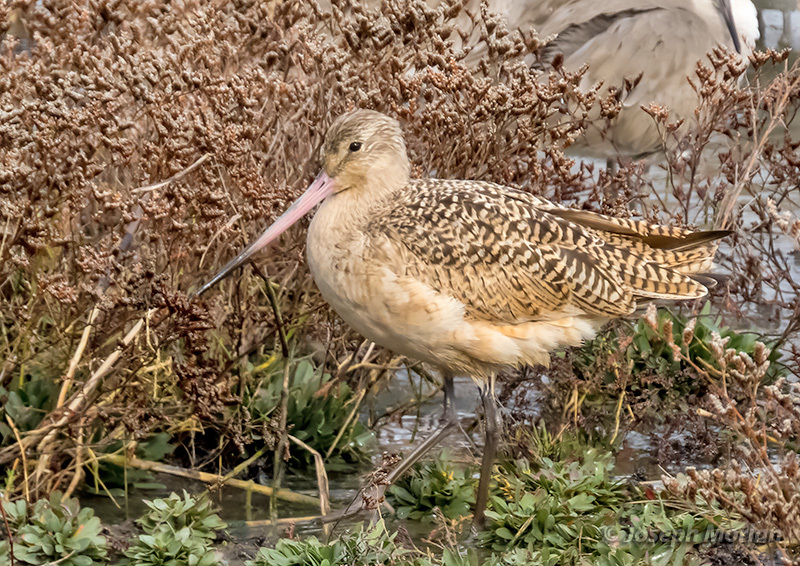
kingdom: Animalia
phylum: Chordata
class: Aves
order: Charadriiformes
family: Scolopacidae
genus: Limosa
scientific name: Limosa fedoa
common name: Marbled godwit
